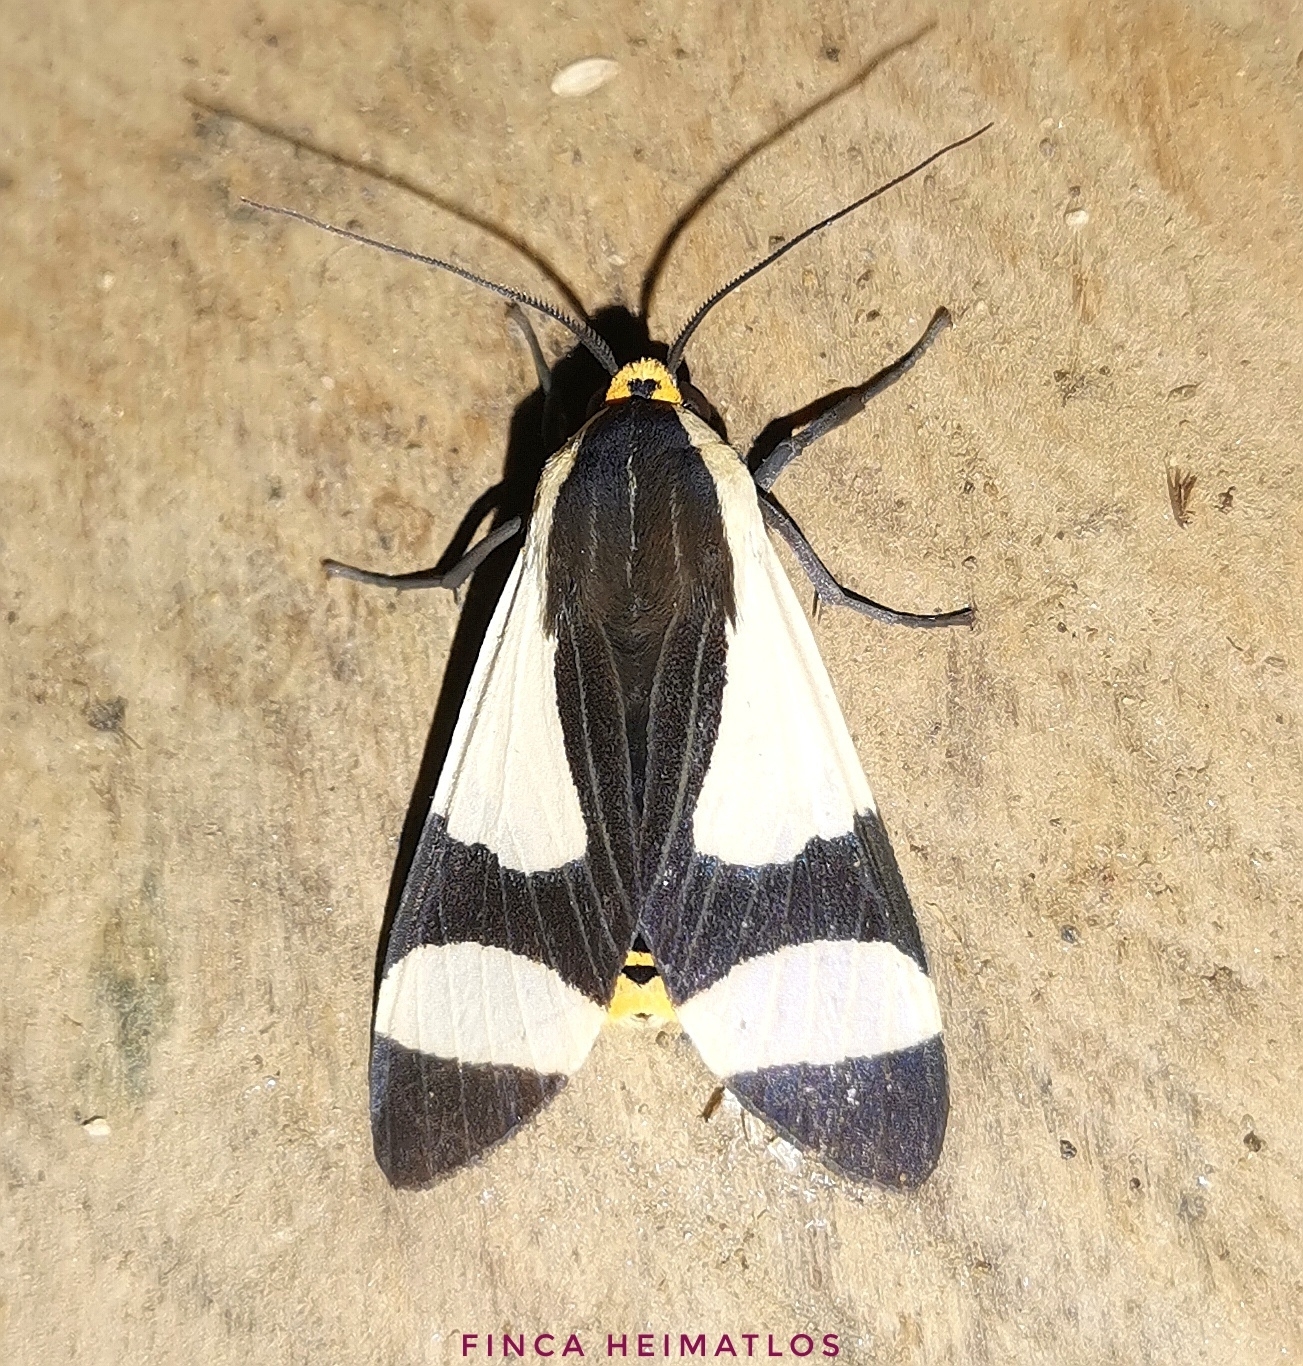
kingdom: Animalia
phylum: Arthropoda
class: Insecta
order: Lepidoptera
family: Erebidae
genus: Pryteria
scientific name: Pryteria alboatra
